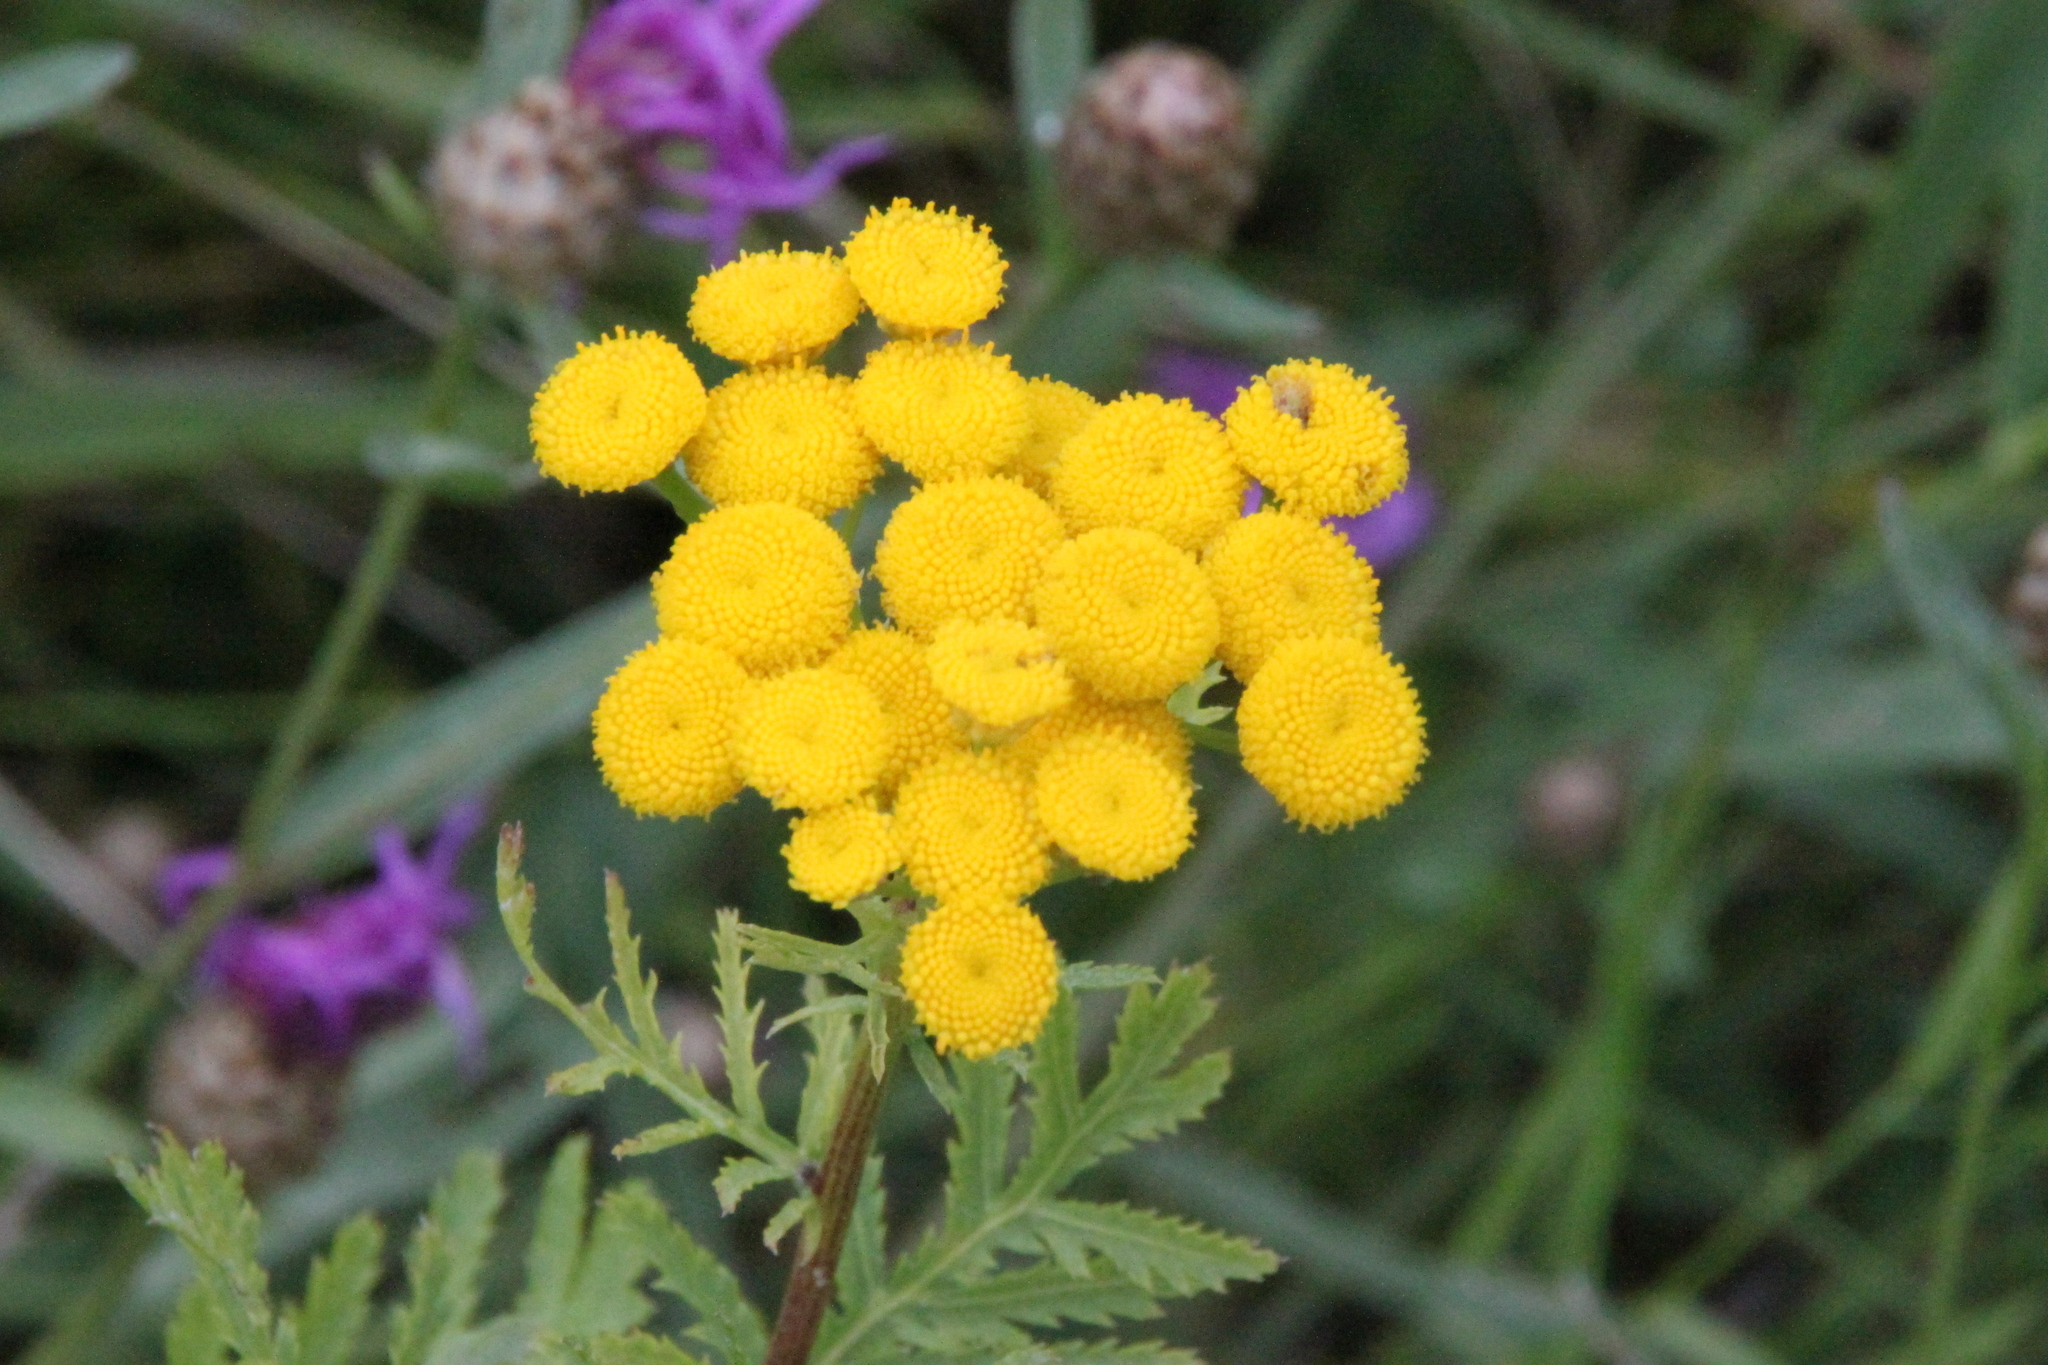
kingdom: Plantae
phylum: Tracheophyta
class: Magnoliopsida
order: Asterales
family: Asteraceae
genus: Tanacetum
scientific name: Tanacetum vulgare
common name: Common tansy
